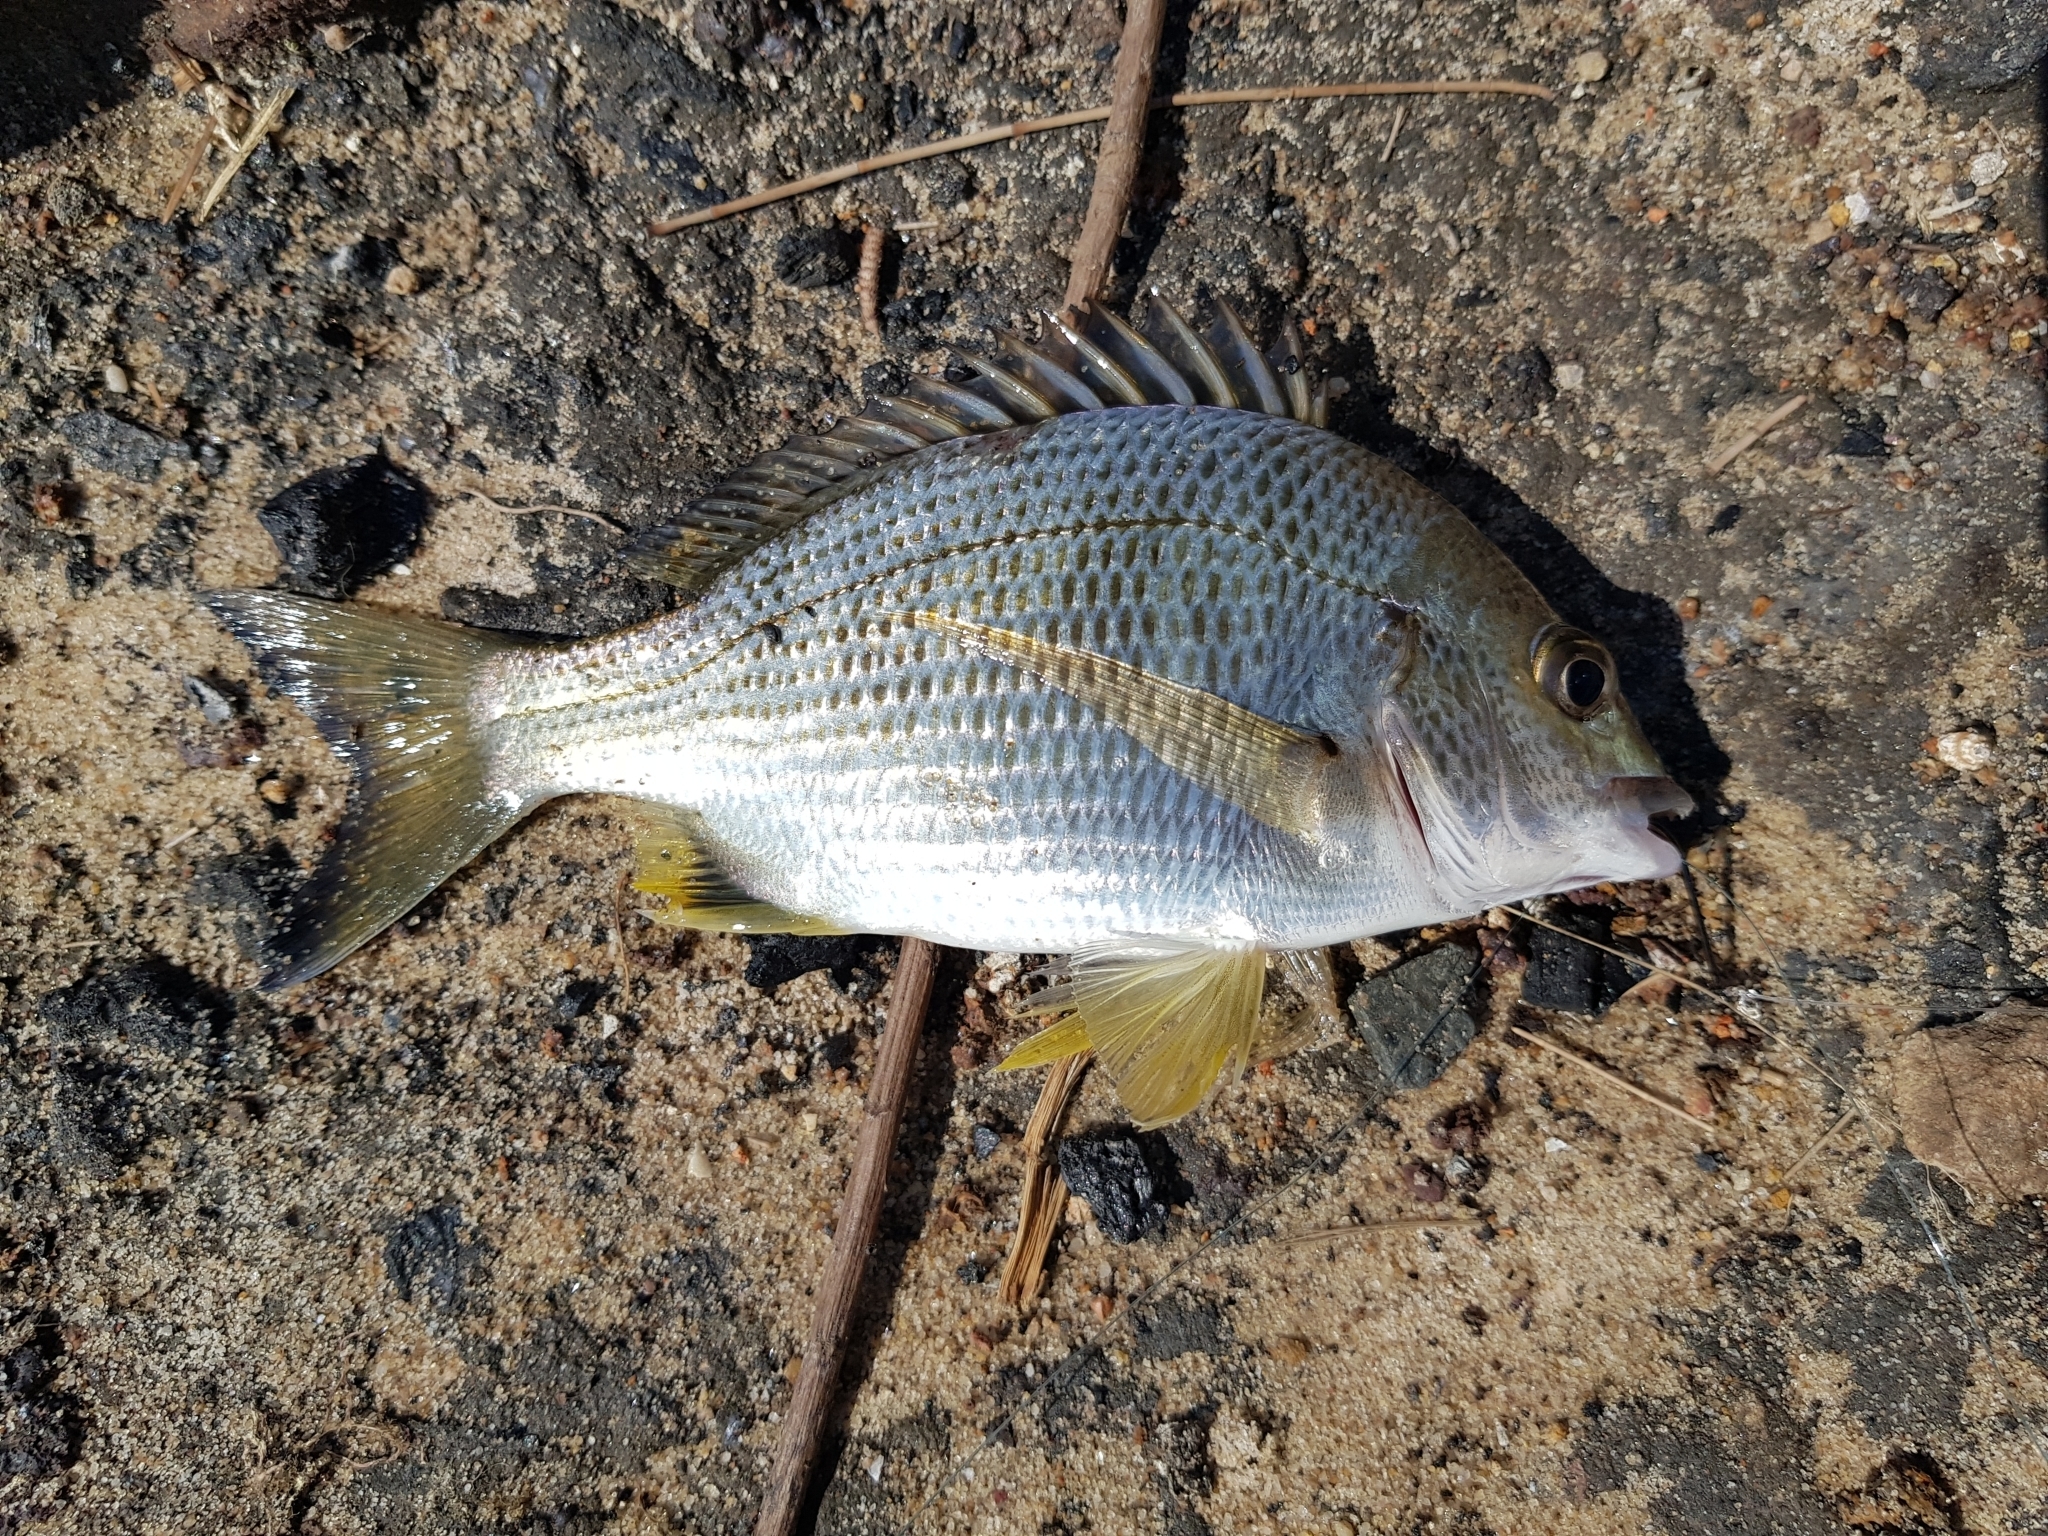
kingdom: Animalia
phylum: Chordata
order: Perciformes
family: Sparidae
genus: Acanthopagrus
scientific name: Acanthopagrus australis
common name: Surf bream
